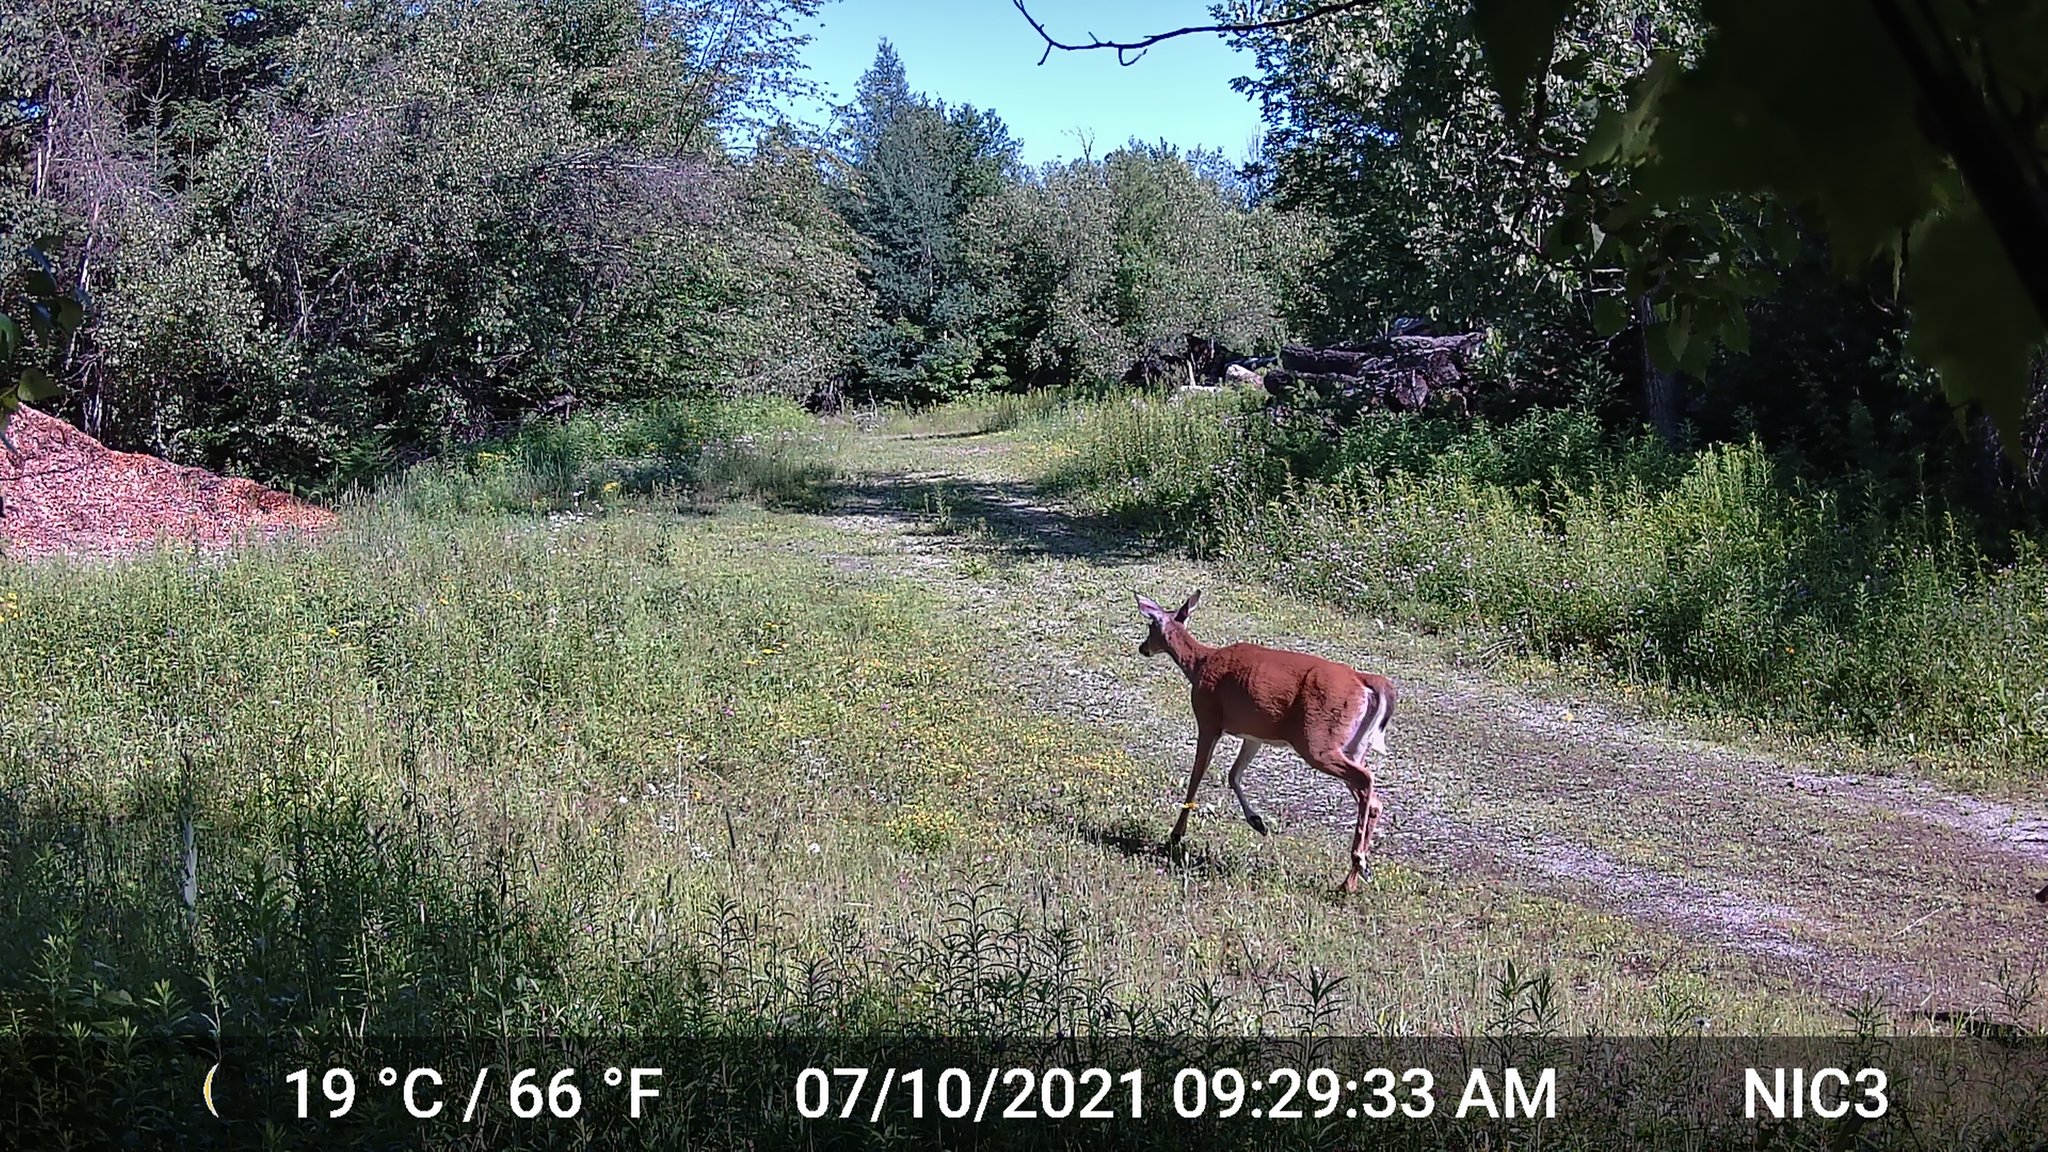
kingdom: Animalia
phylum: Chordata
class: Mammalia
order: Artiodactyla
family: Cervidae
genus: Odocoileus
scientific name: Odocoileus virginianus
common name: White-tailed deer
